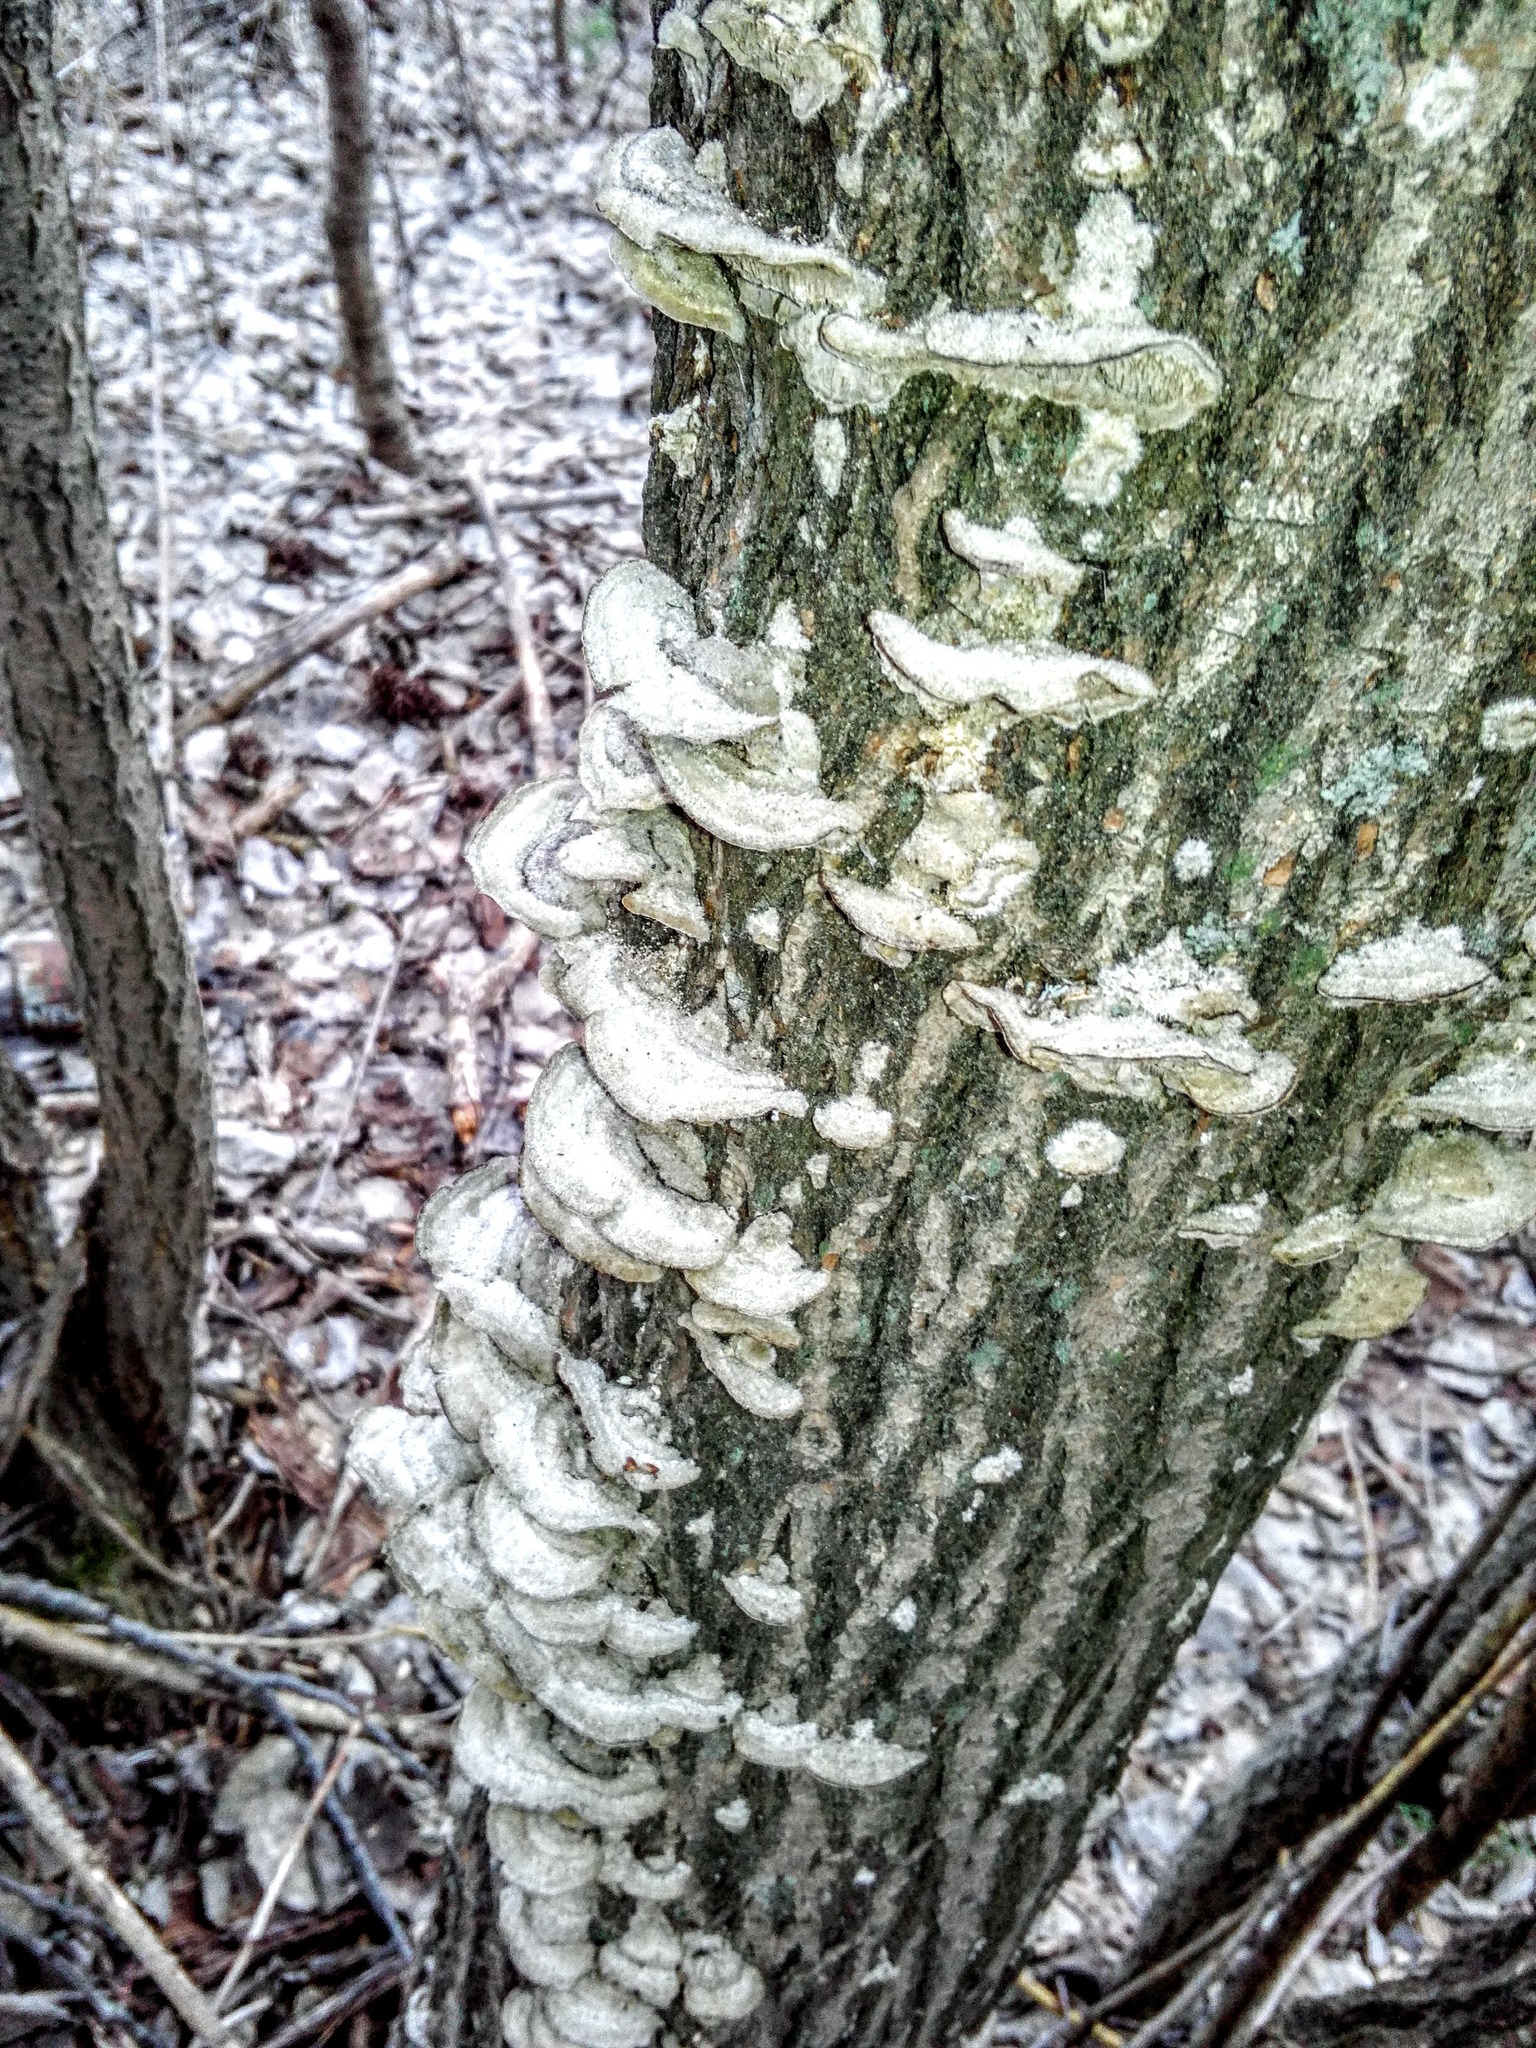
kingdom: Fungi
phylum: Basidiomycota
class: Agaricomycetes
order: Polyporales
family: Cerrenaceae
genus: Cerrena
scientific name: Cerrena unicolor
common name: Mossy maze polypore
